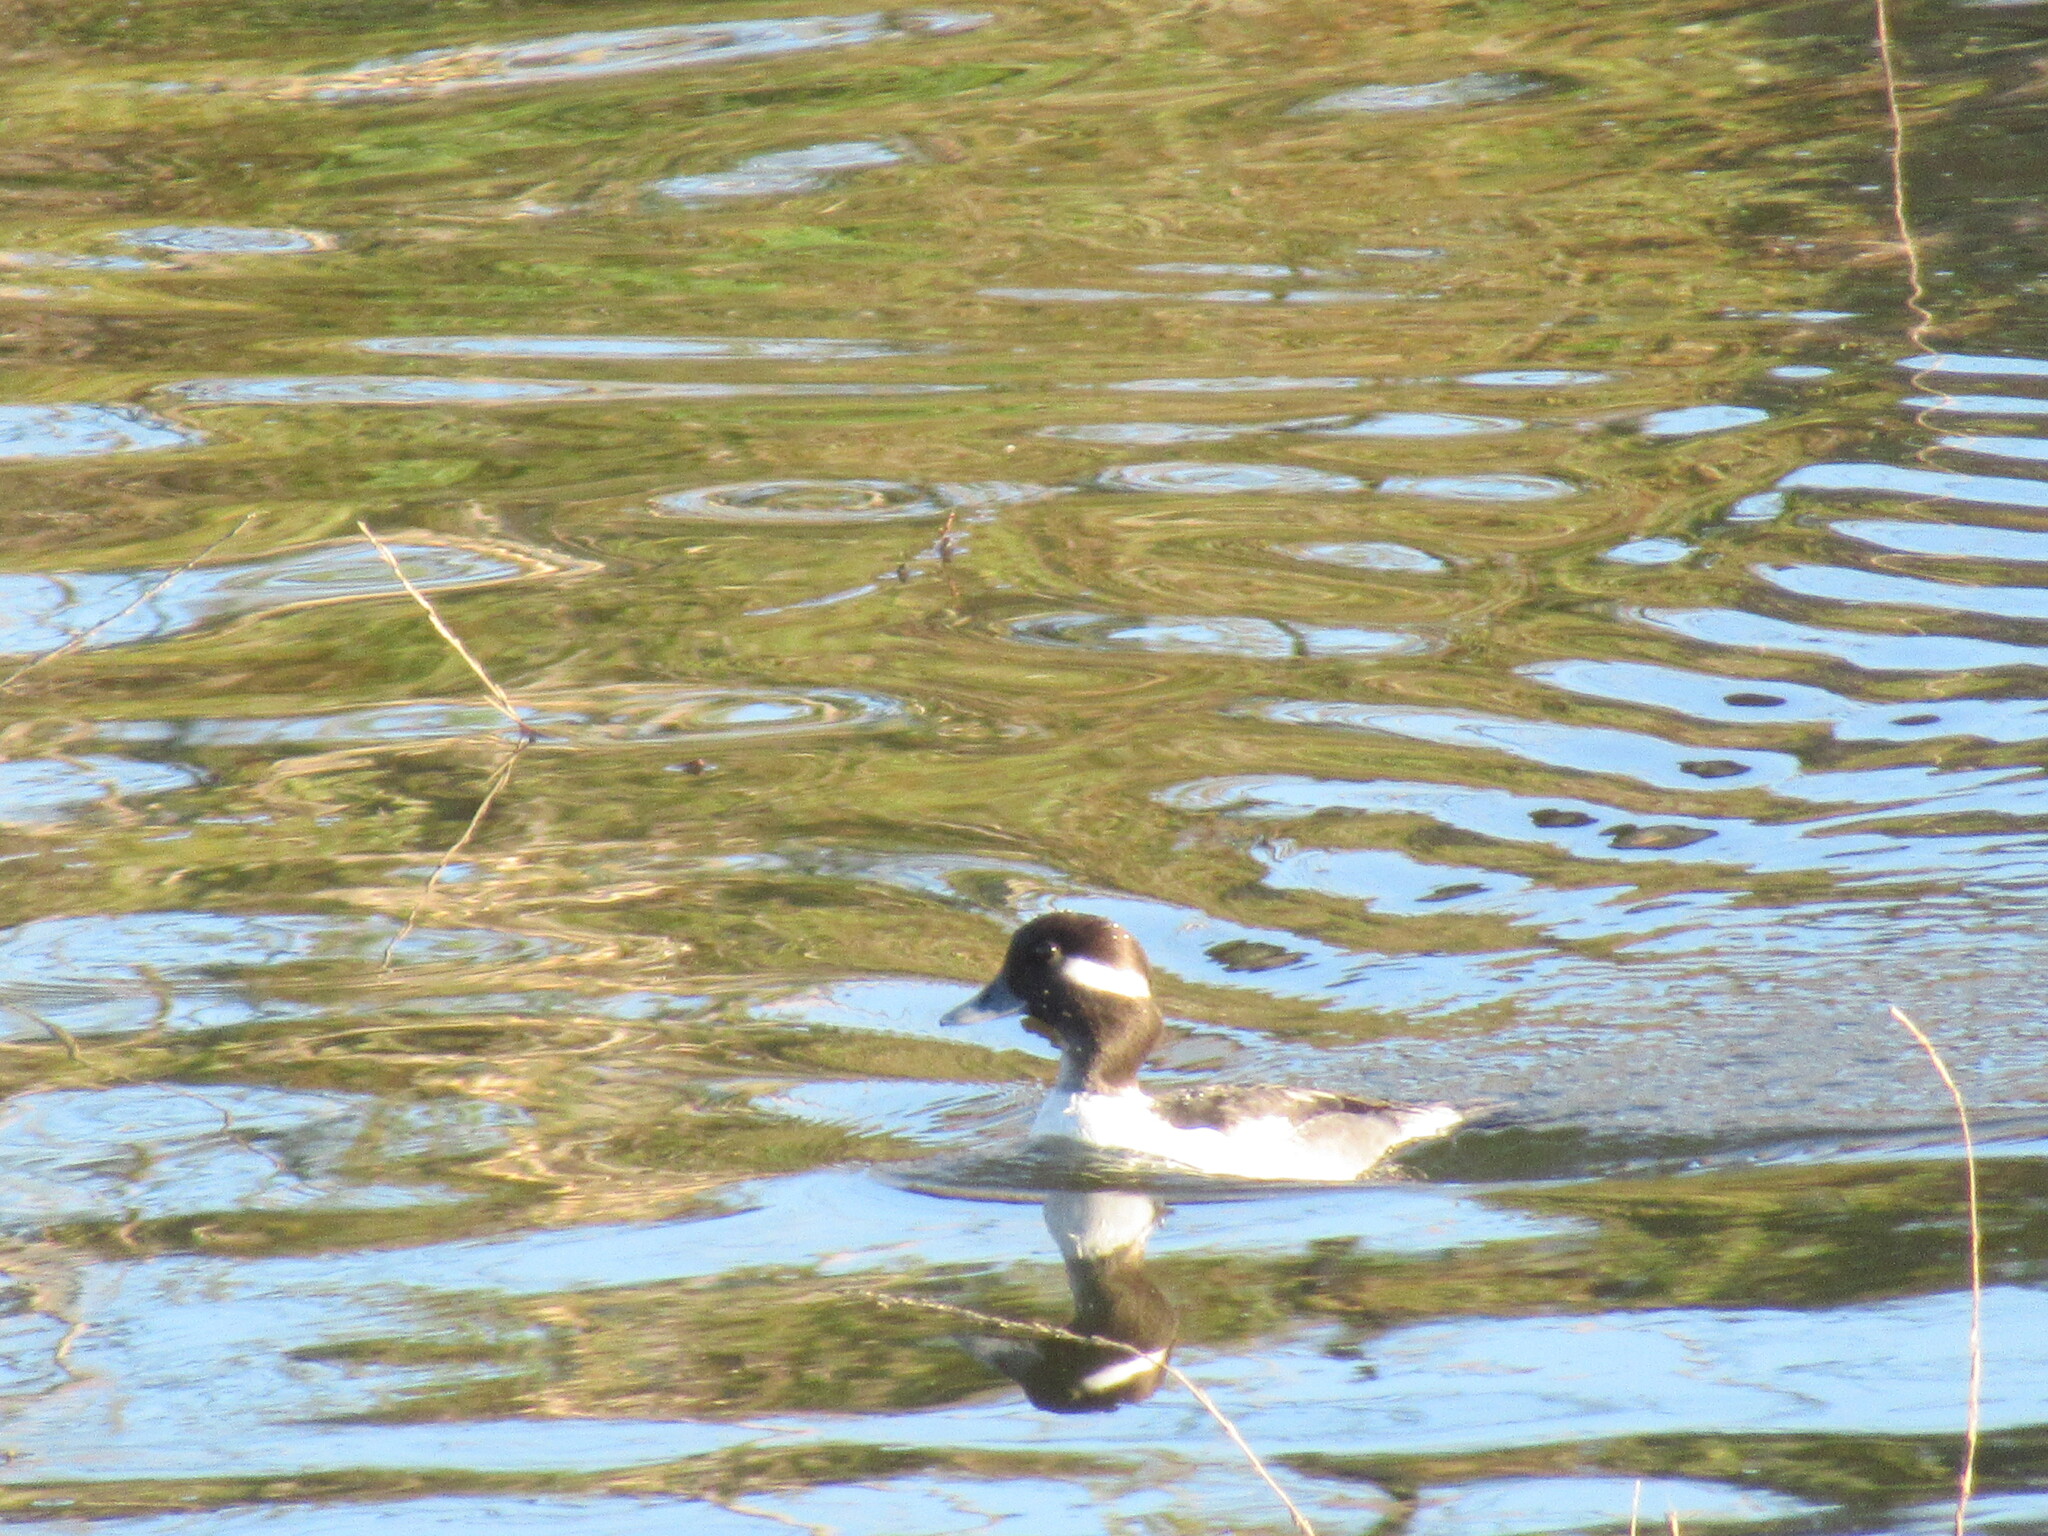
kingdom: Animalia
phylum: Chordata
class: Aves
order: Anseriformes
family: Anatidae
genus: Bucephala
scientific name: Bucephala albeola
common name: Bufflehead
